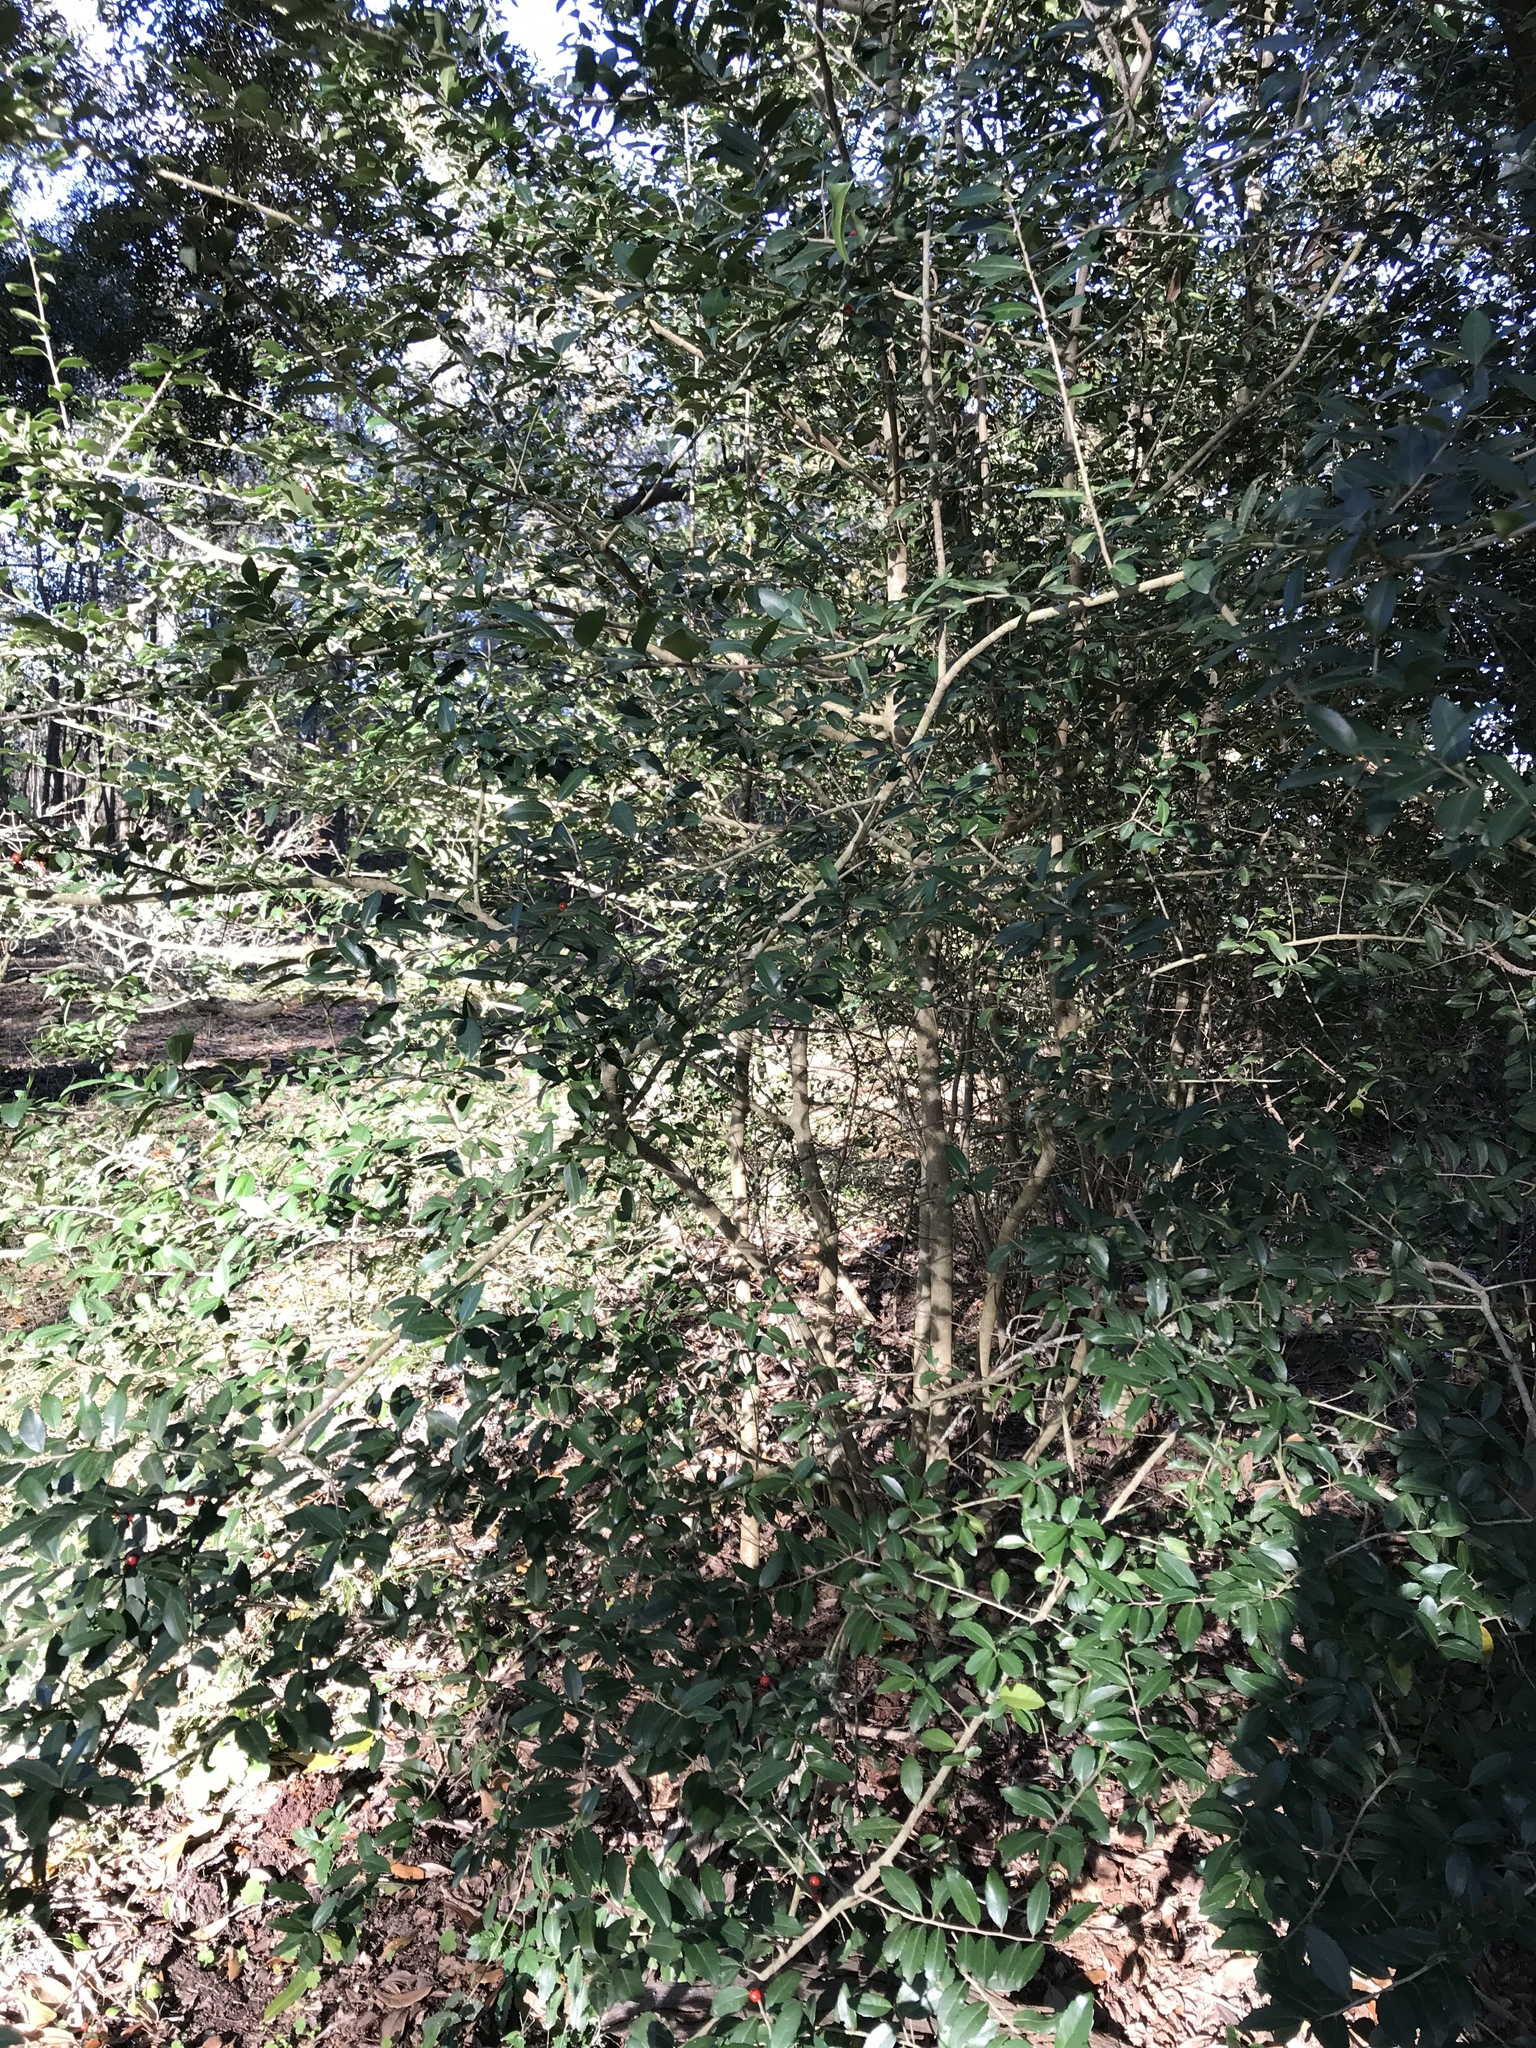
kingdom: Plantae
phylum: Tracheophyta
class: Magnoliopsida
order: Aquifoliales
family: Aquifoliaceae
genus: Ilex
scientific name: Ilex vomitoria
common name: Yaupon holly
